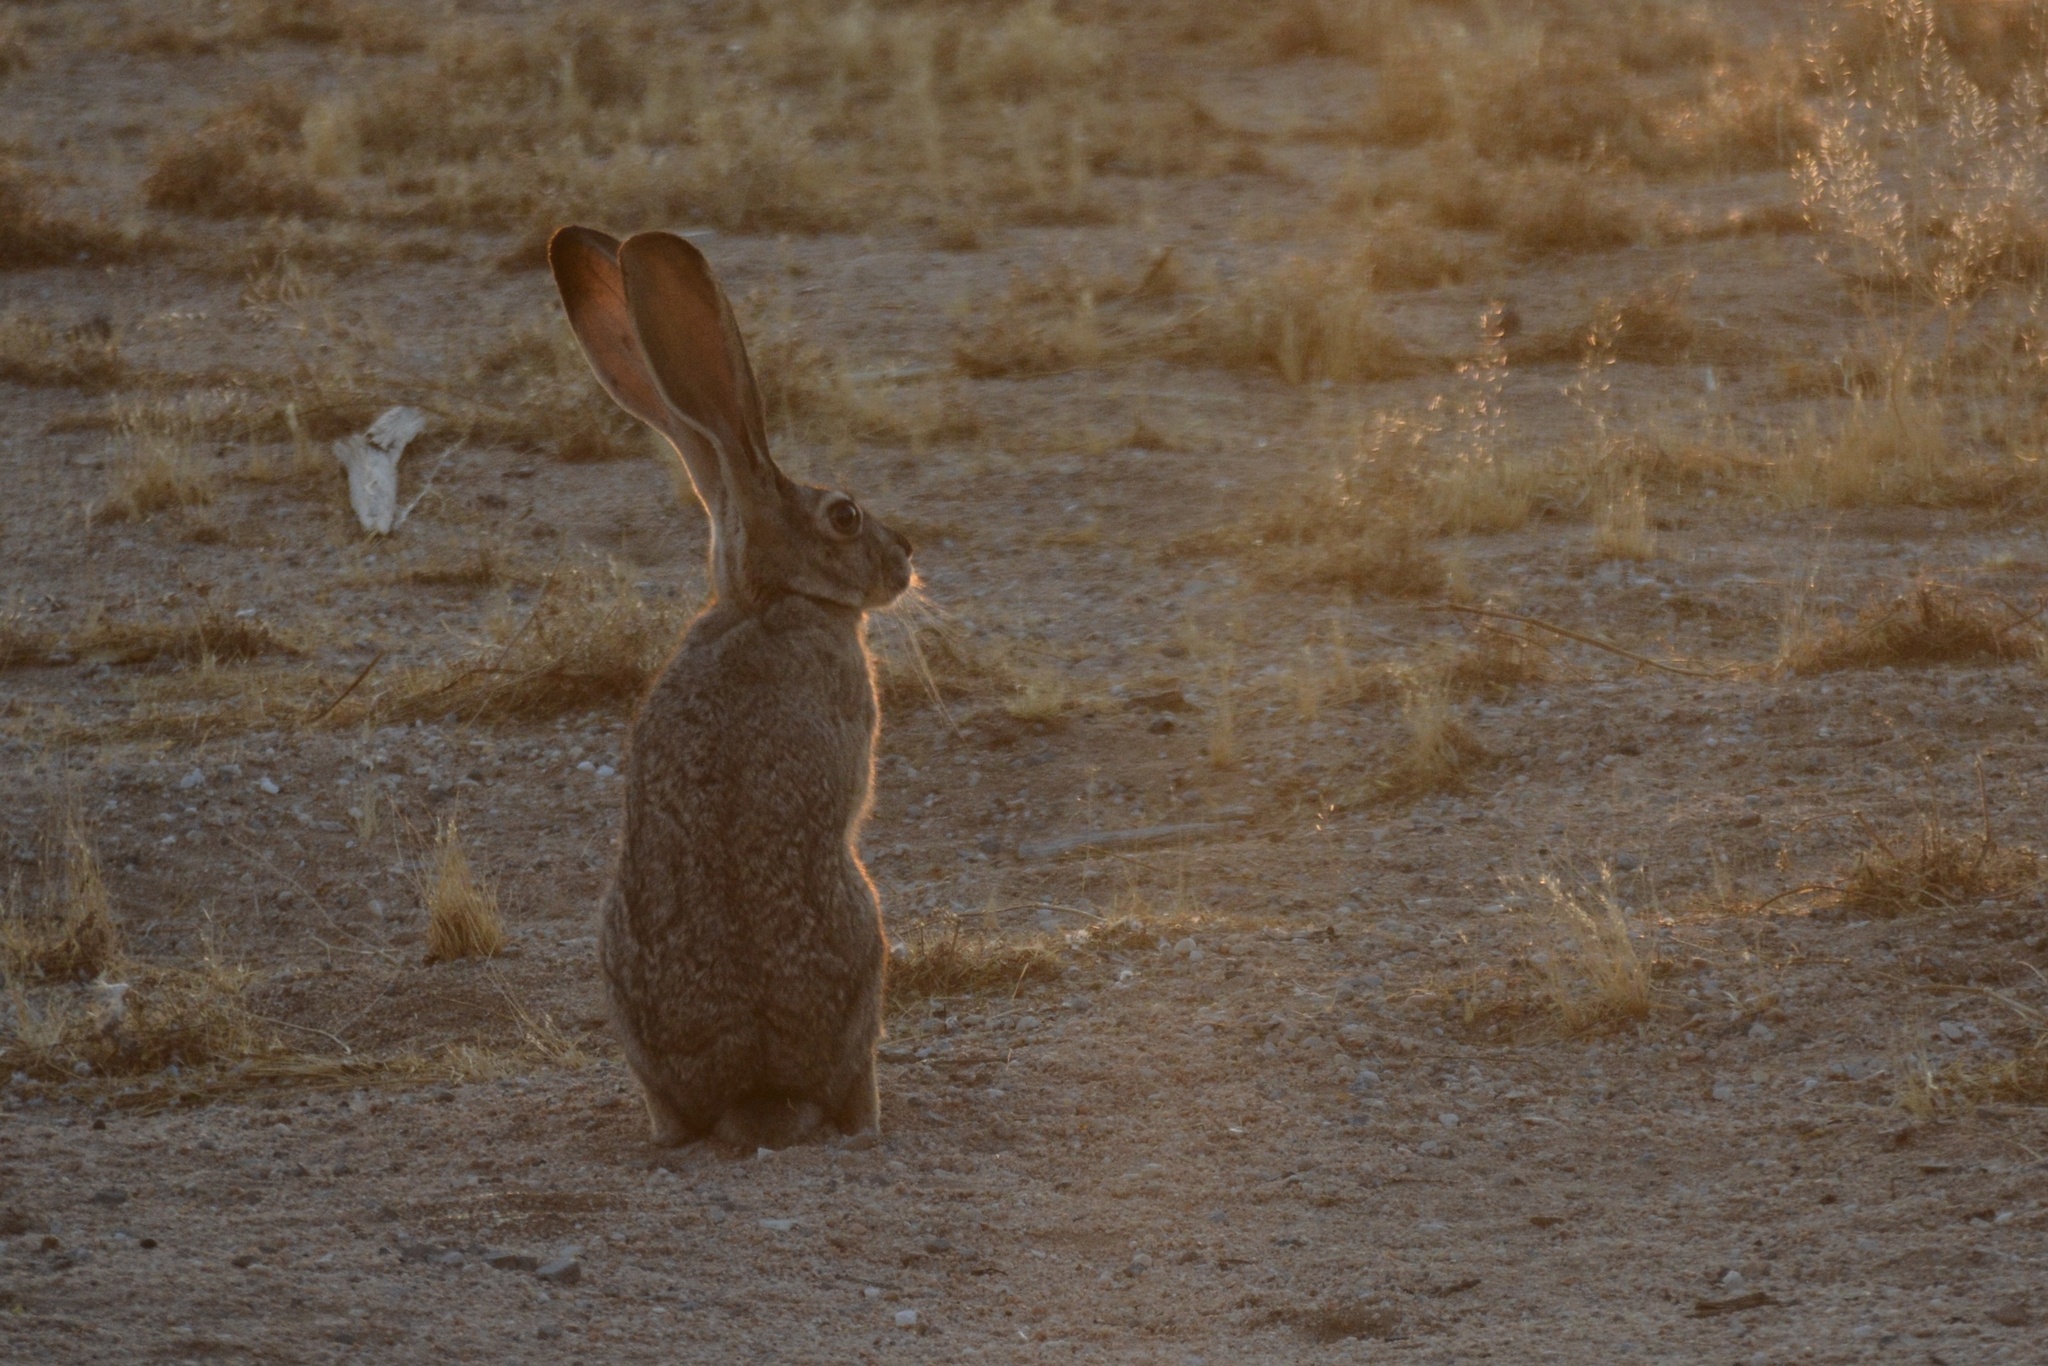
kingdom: Animalia
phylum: Chordata
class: Mammalia
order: Lagomorpha
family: Leporidae
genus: Lepus
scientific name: Lepus californicus
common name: Black-tailed jackrabbit
